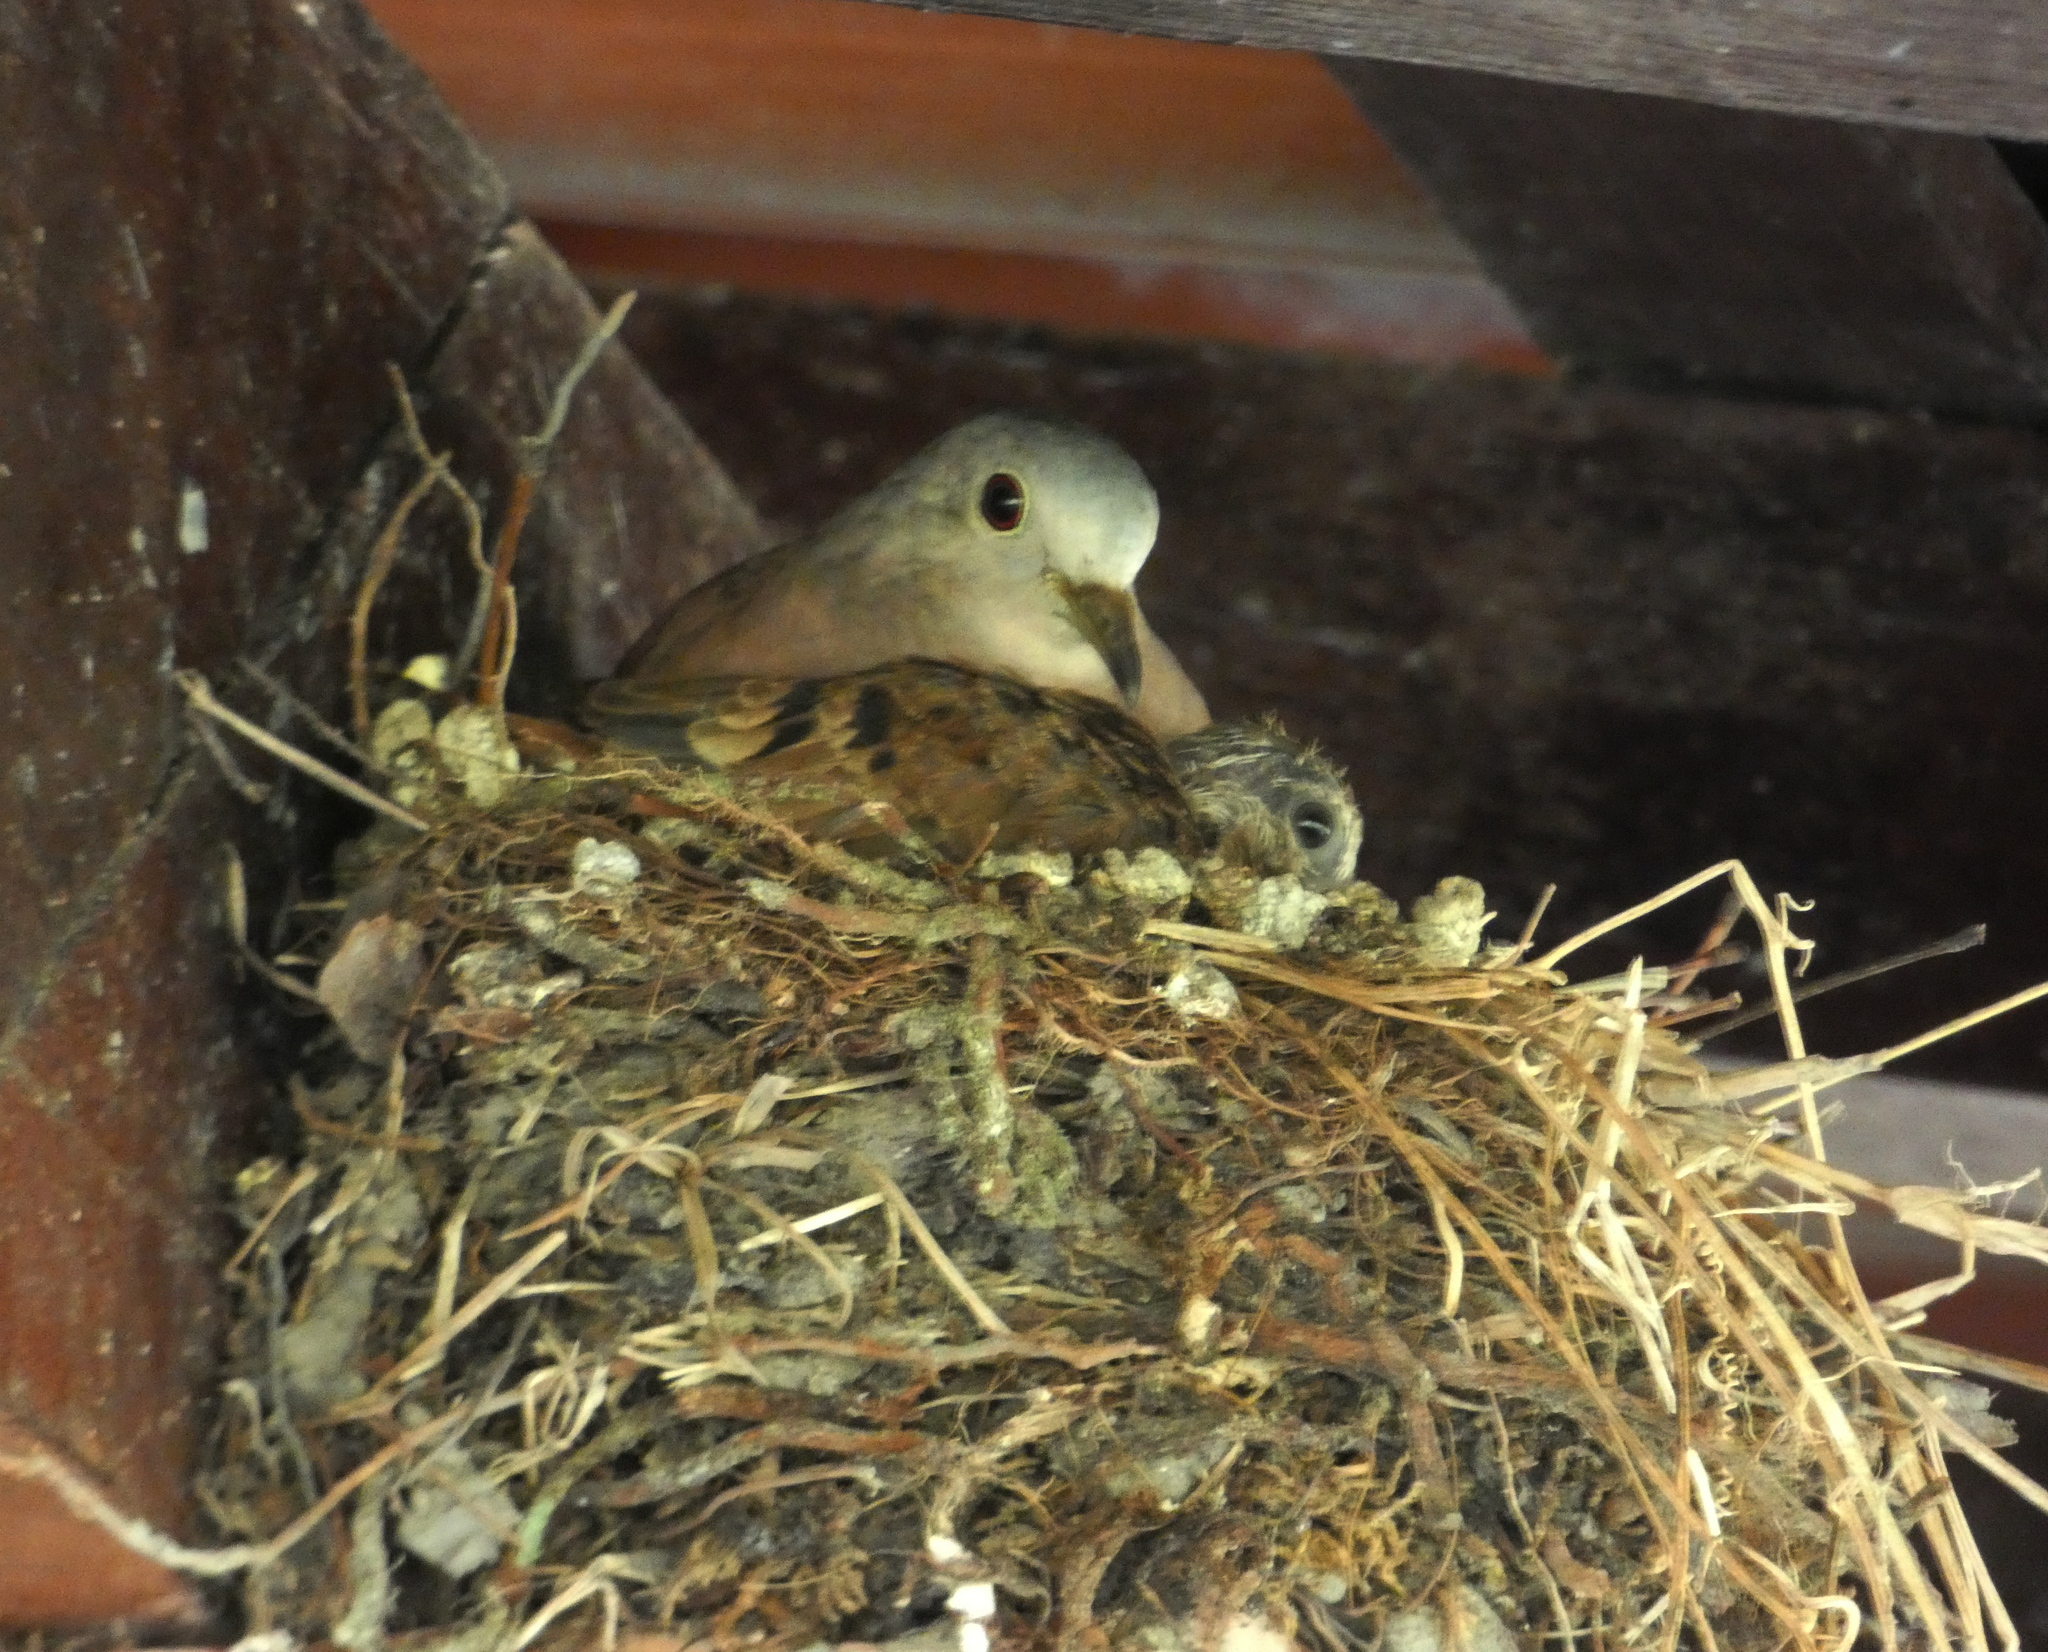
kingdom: Animalia
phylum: Chordata
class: Aves
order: Columbiformes
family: Columbidae
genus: Columbina
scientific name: Columbina talpacoti
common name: Ruddy ground dove
